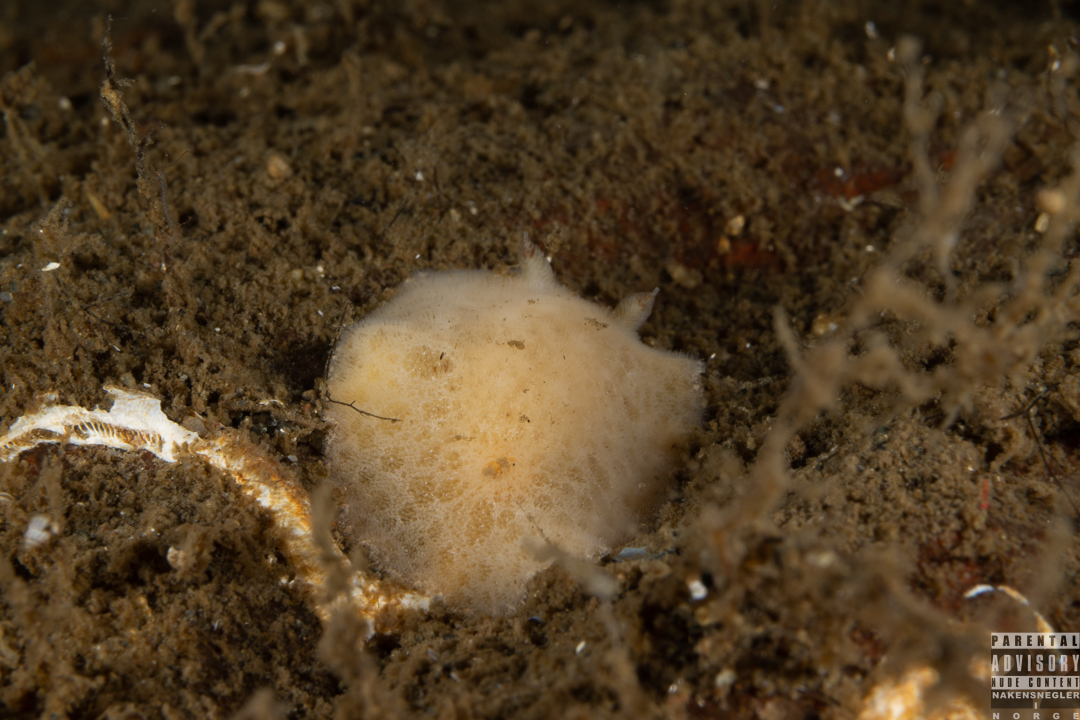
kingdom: Animalia
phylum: Mollusca
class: Gastropoda
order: Nudibranchia
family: Discodorididae
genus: Jorunna
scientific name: Jorunna tomentosa
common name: Grey sea slug
